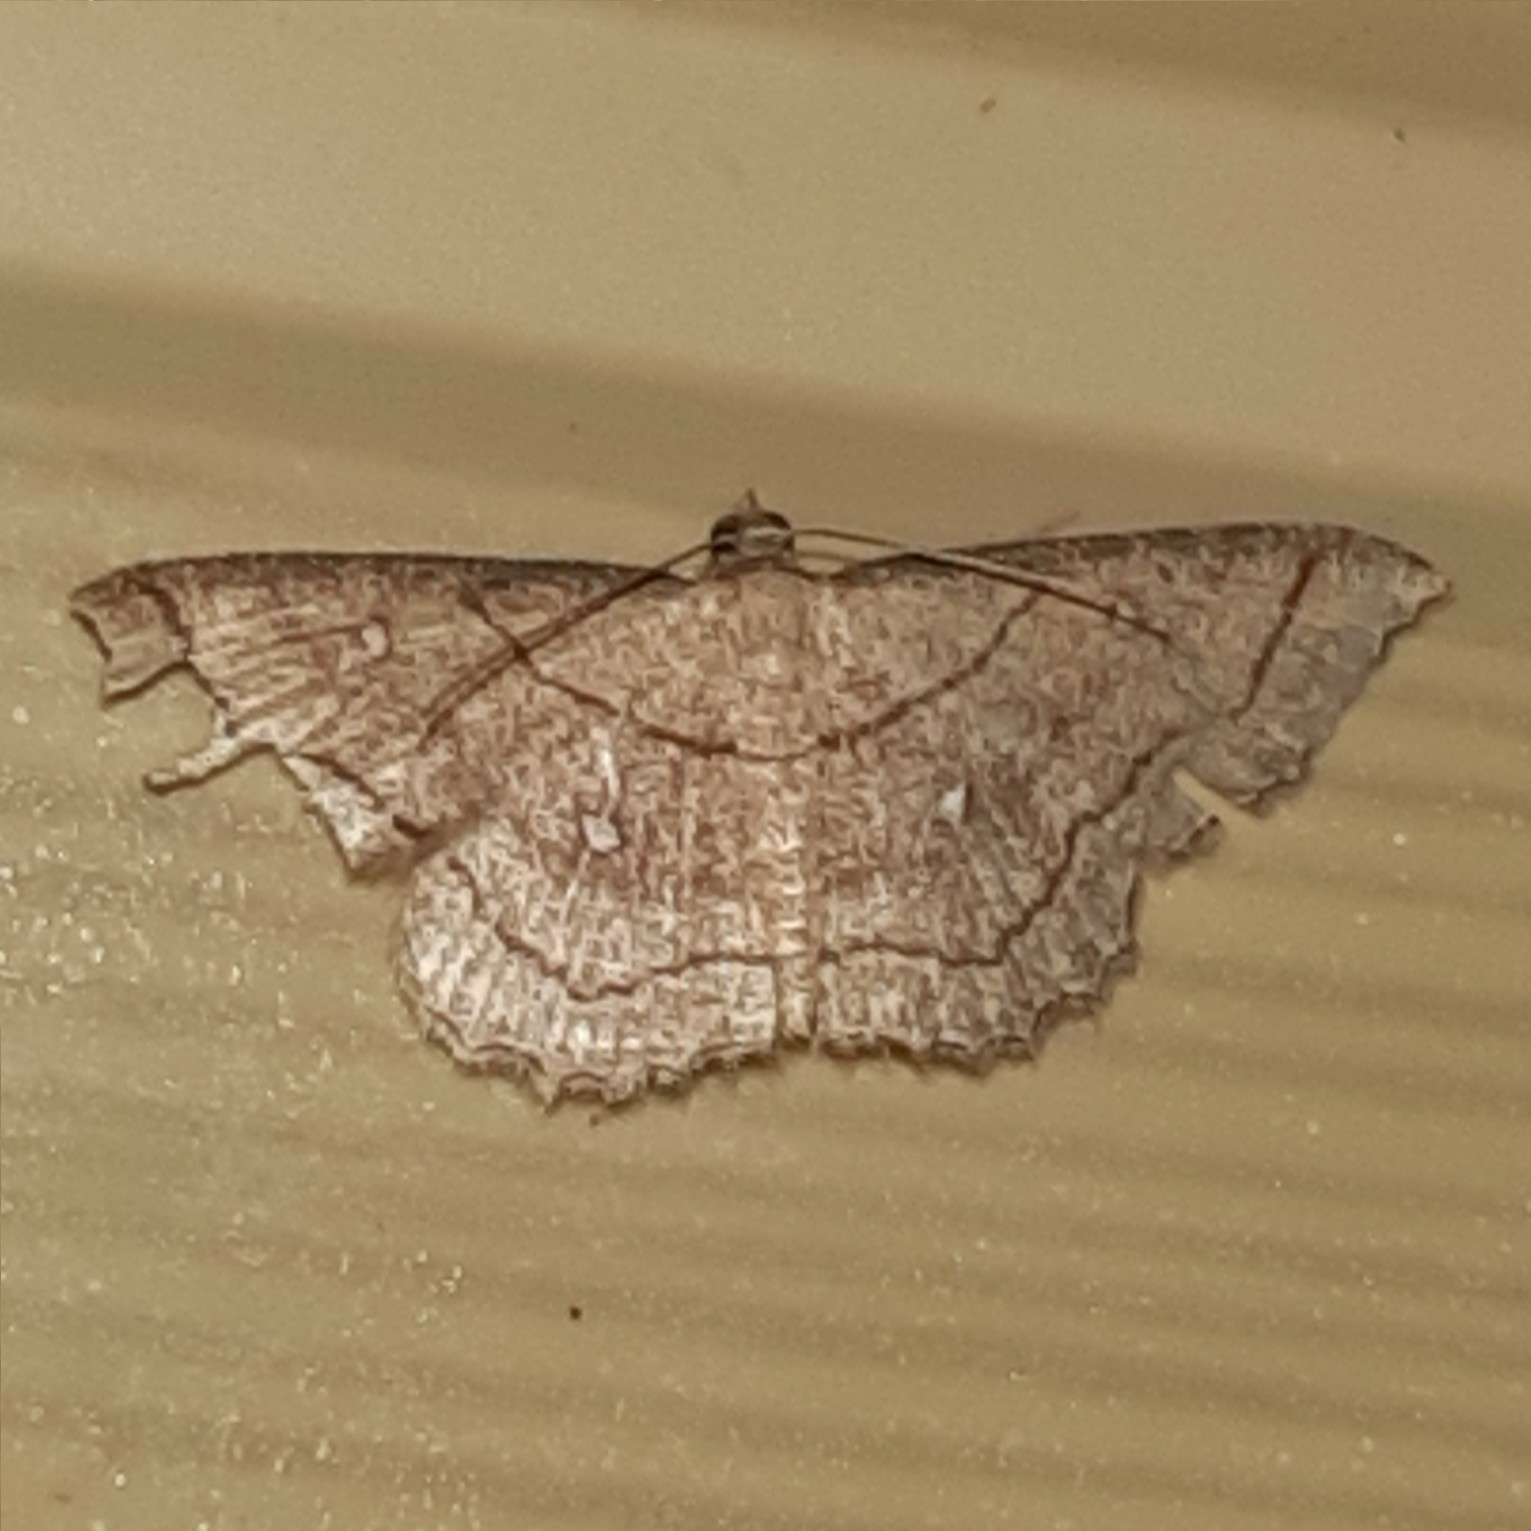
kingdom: Animalia
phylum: Arthropoda
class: Insecta
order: Lepidoptera
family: Geometridae
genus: Cyclophora
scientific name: Cyclophora coecaria
